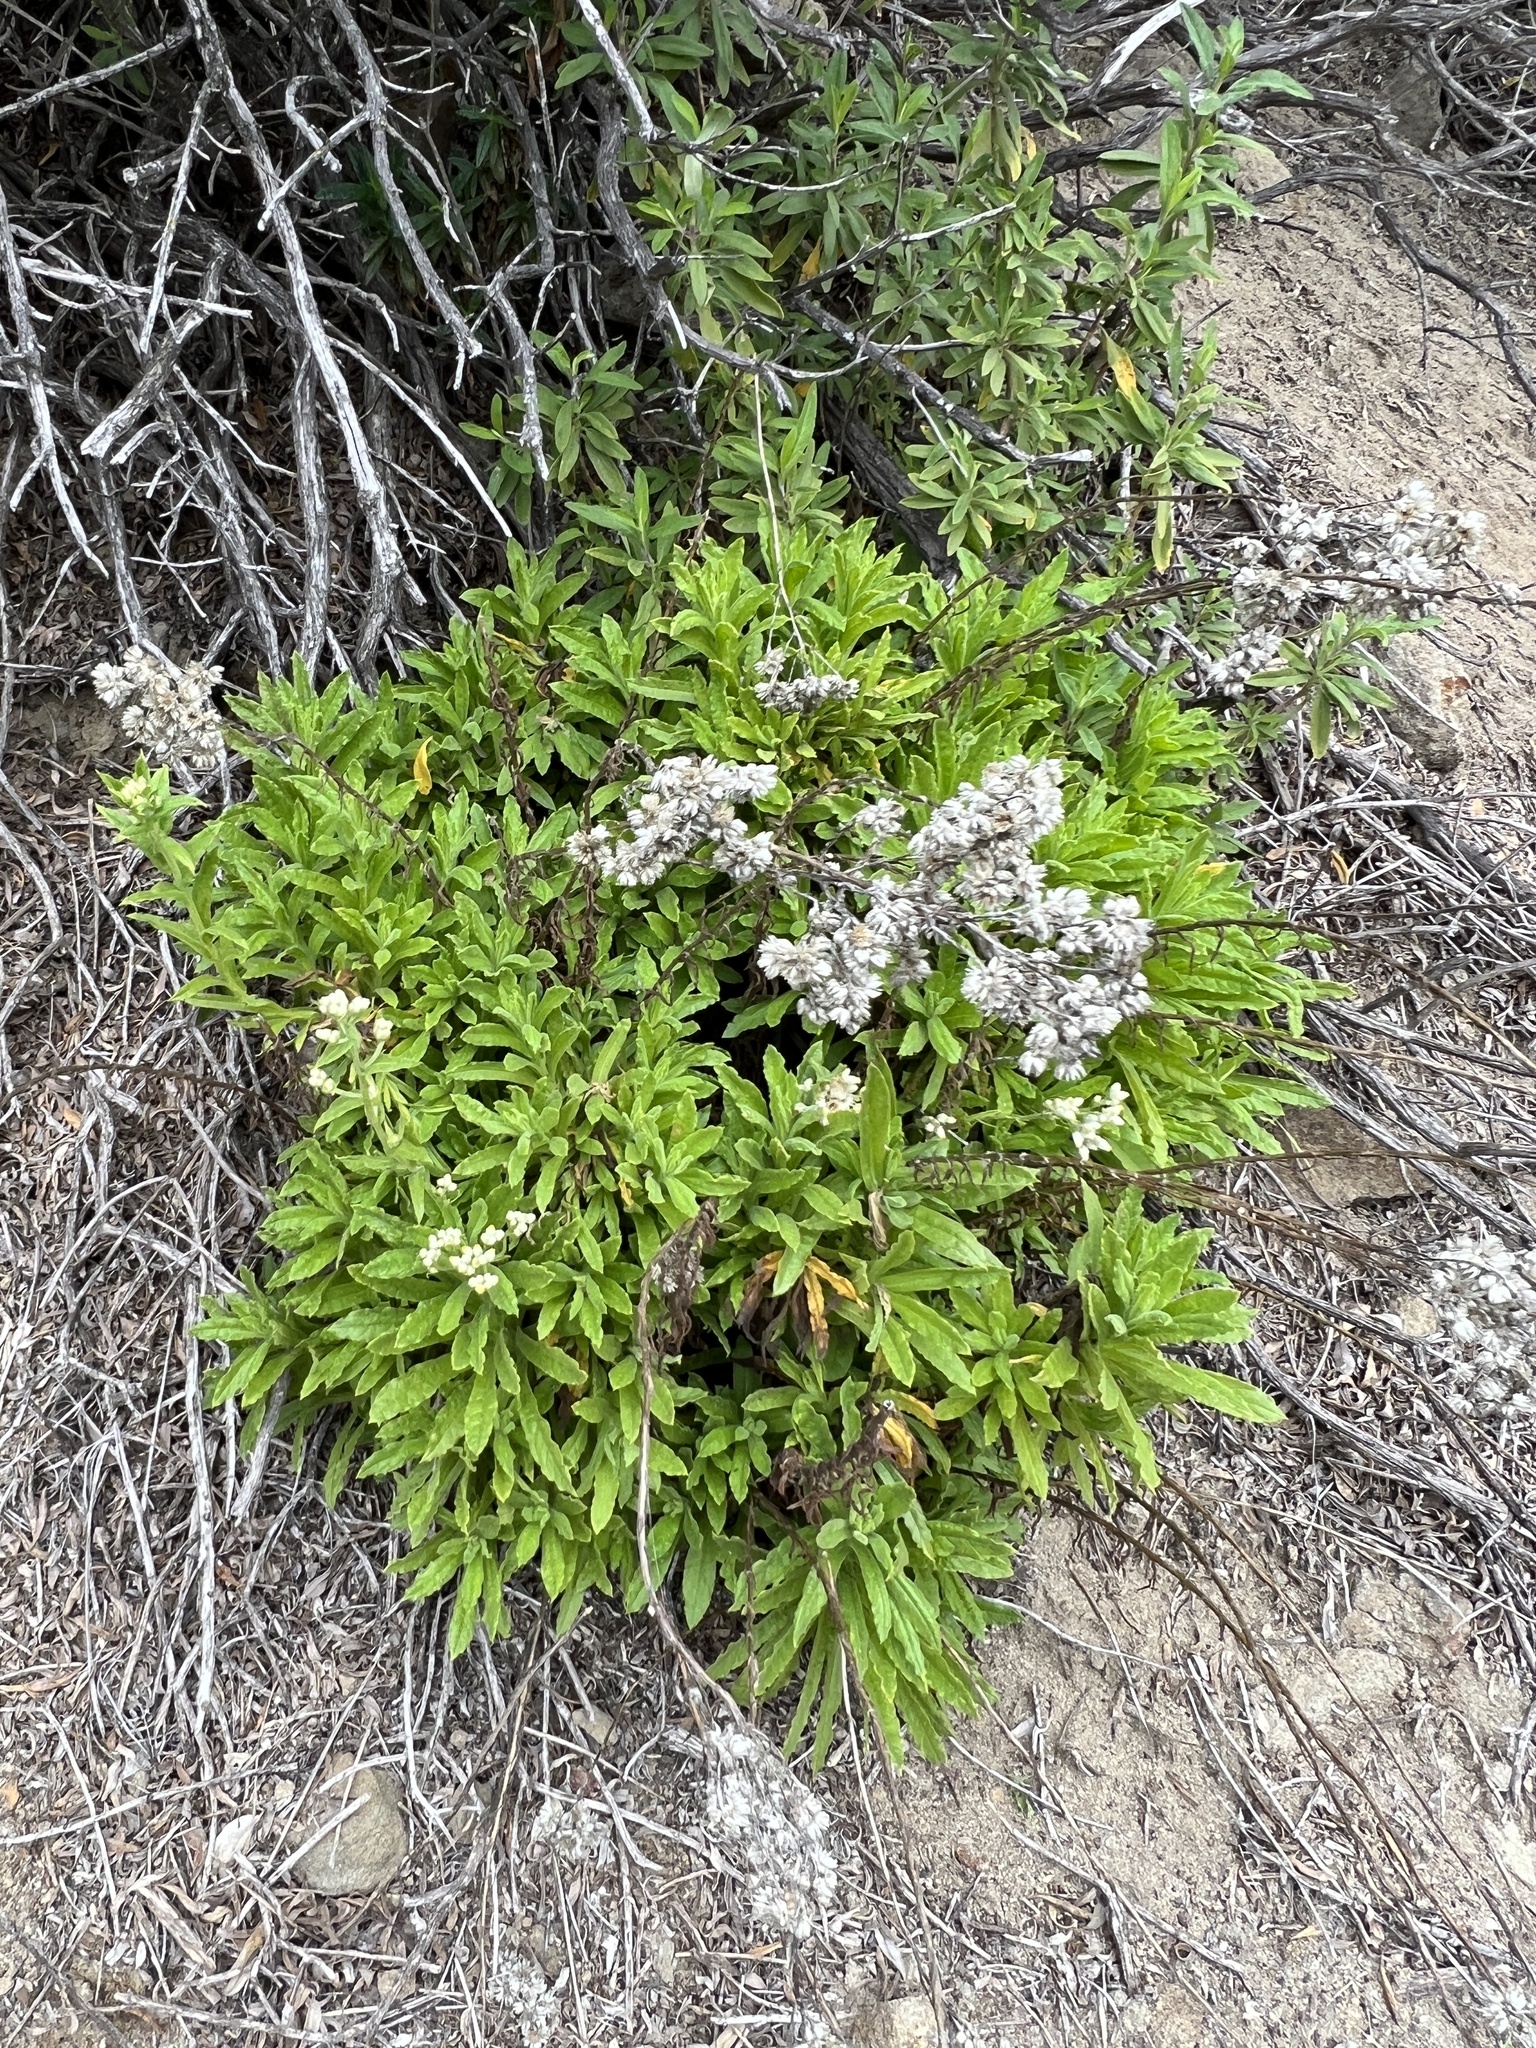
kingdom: Plantae
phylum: Tracheophyta
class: Magnoliopsida
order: Asterales
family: Asteraceae
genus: Pseudognaphalium
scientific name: Pseudognaphalium californicum
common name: California rabbit-tobacco
